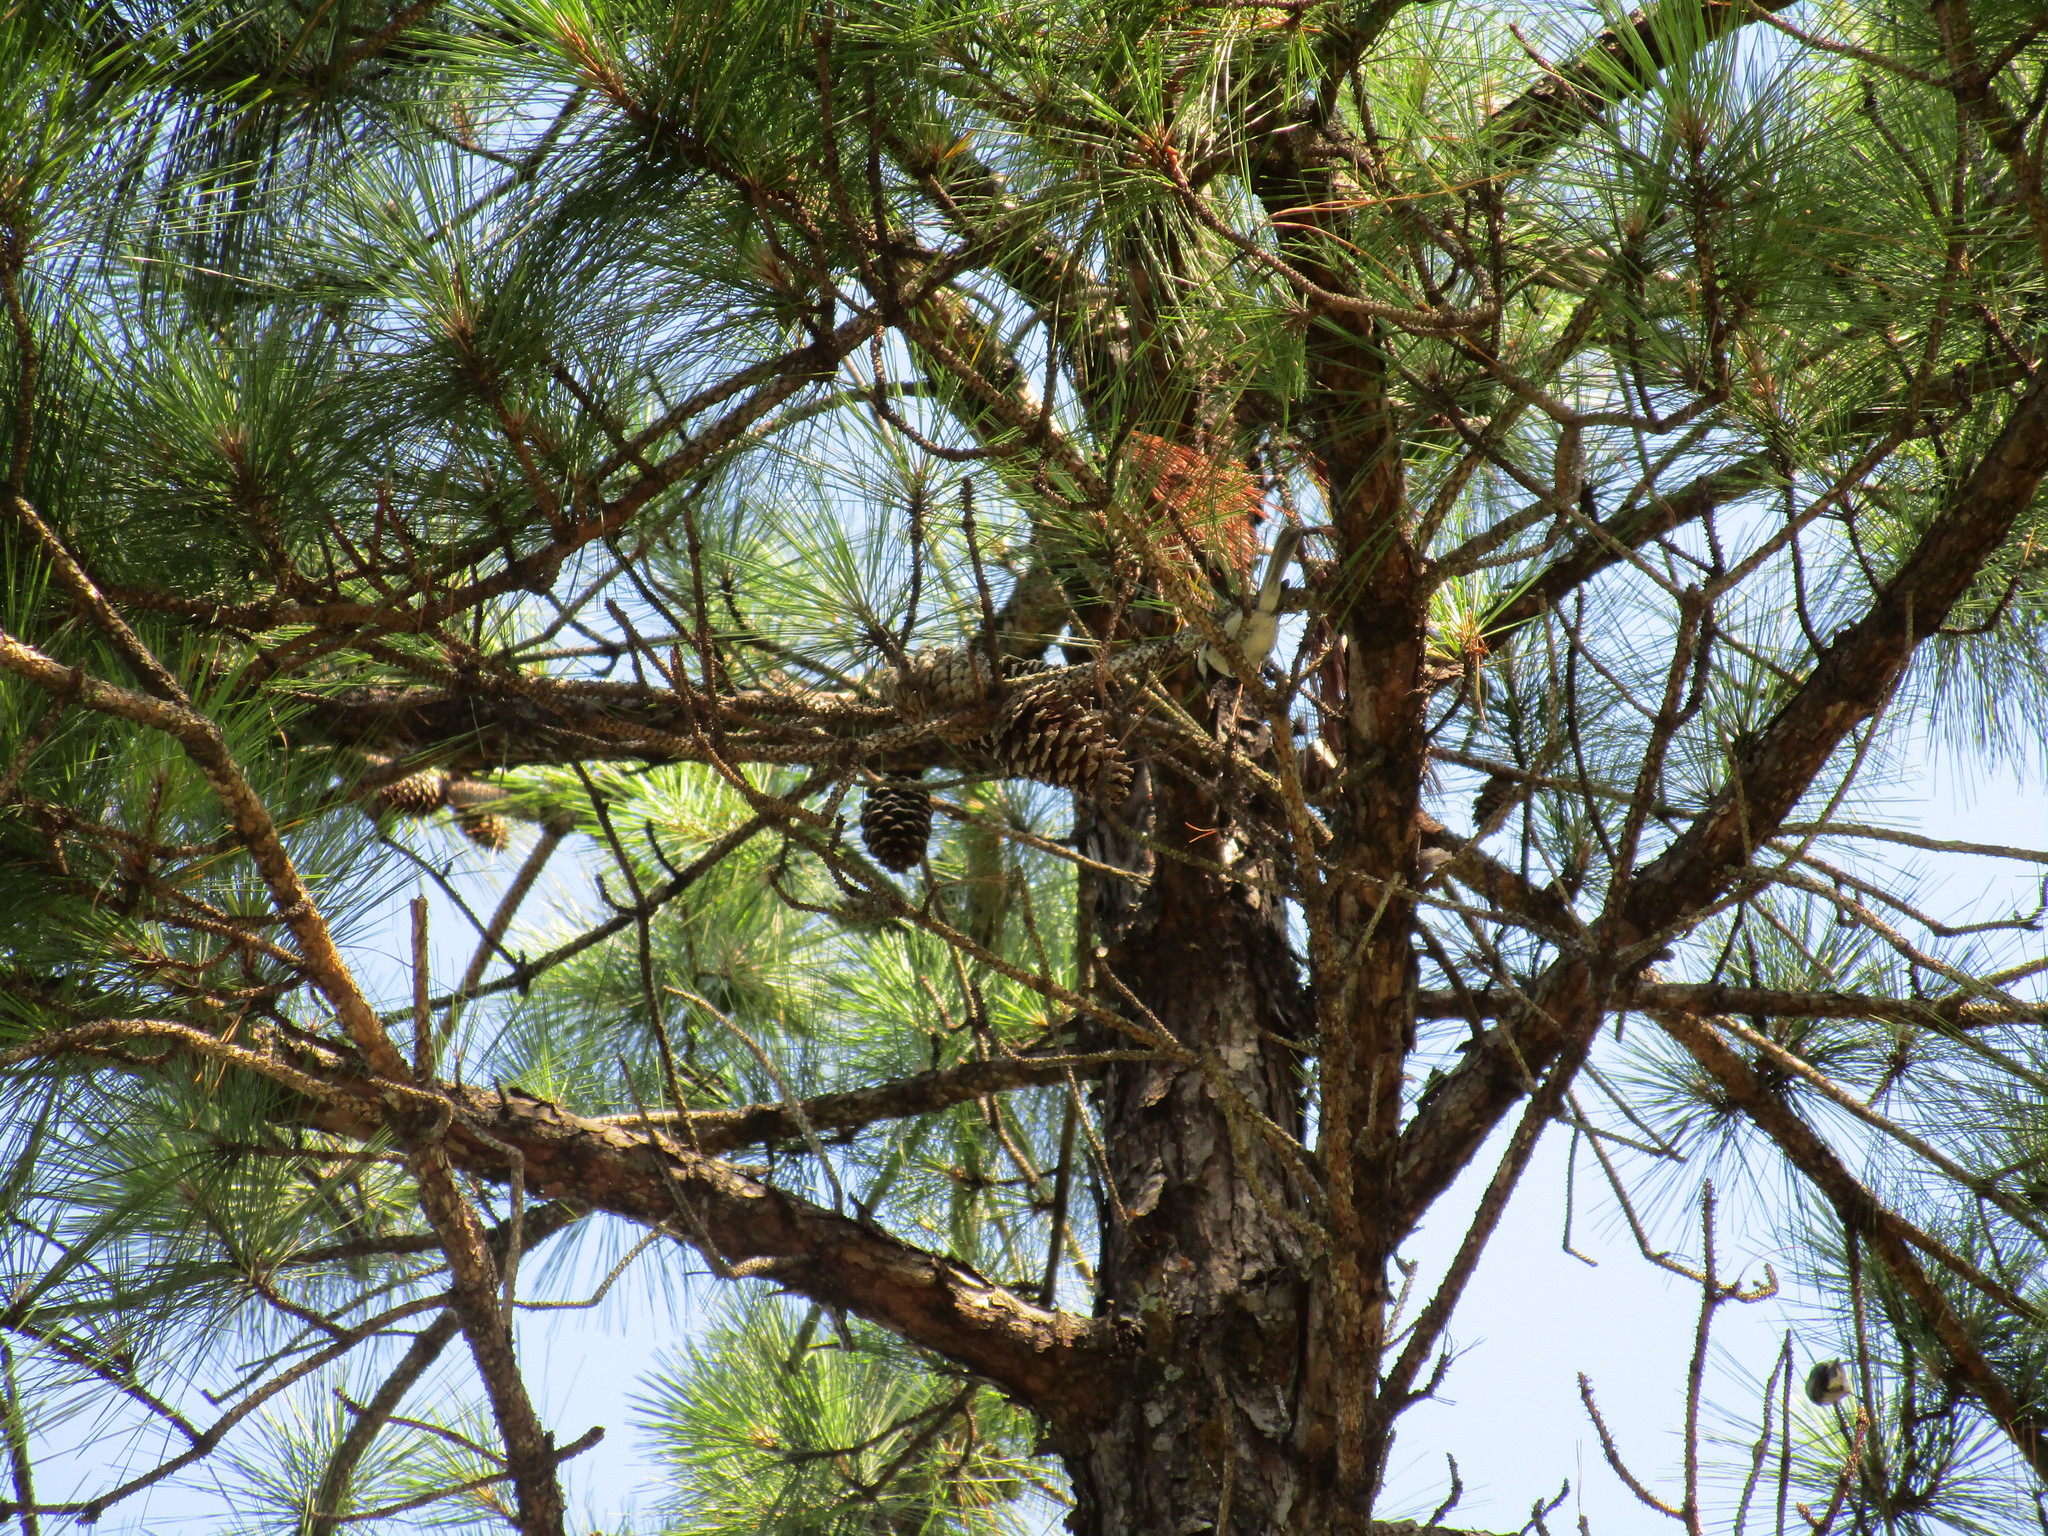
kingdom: Animalia
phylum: Chordata
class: Aves
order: Passeriformes
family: Paridae
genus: Poecile
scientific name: Poecile carolinensis
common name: Carolina chickadee
